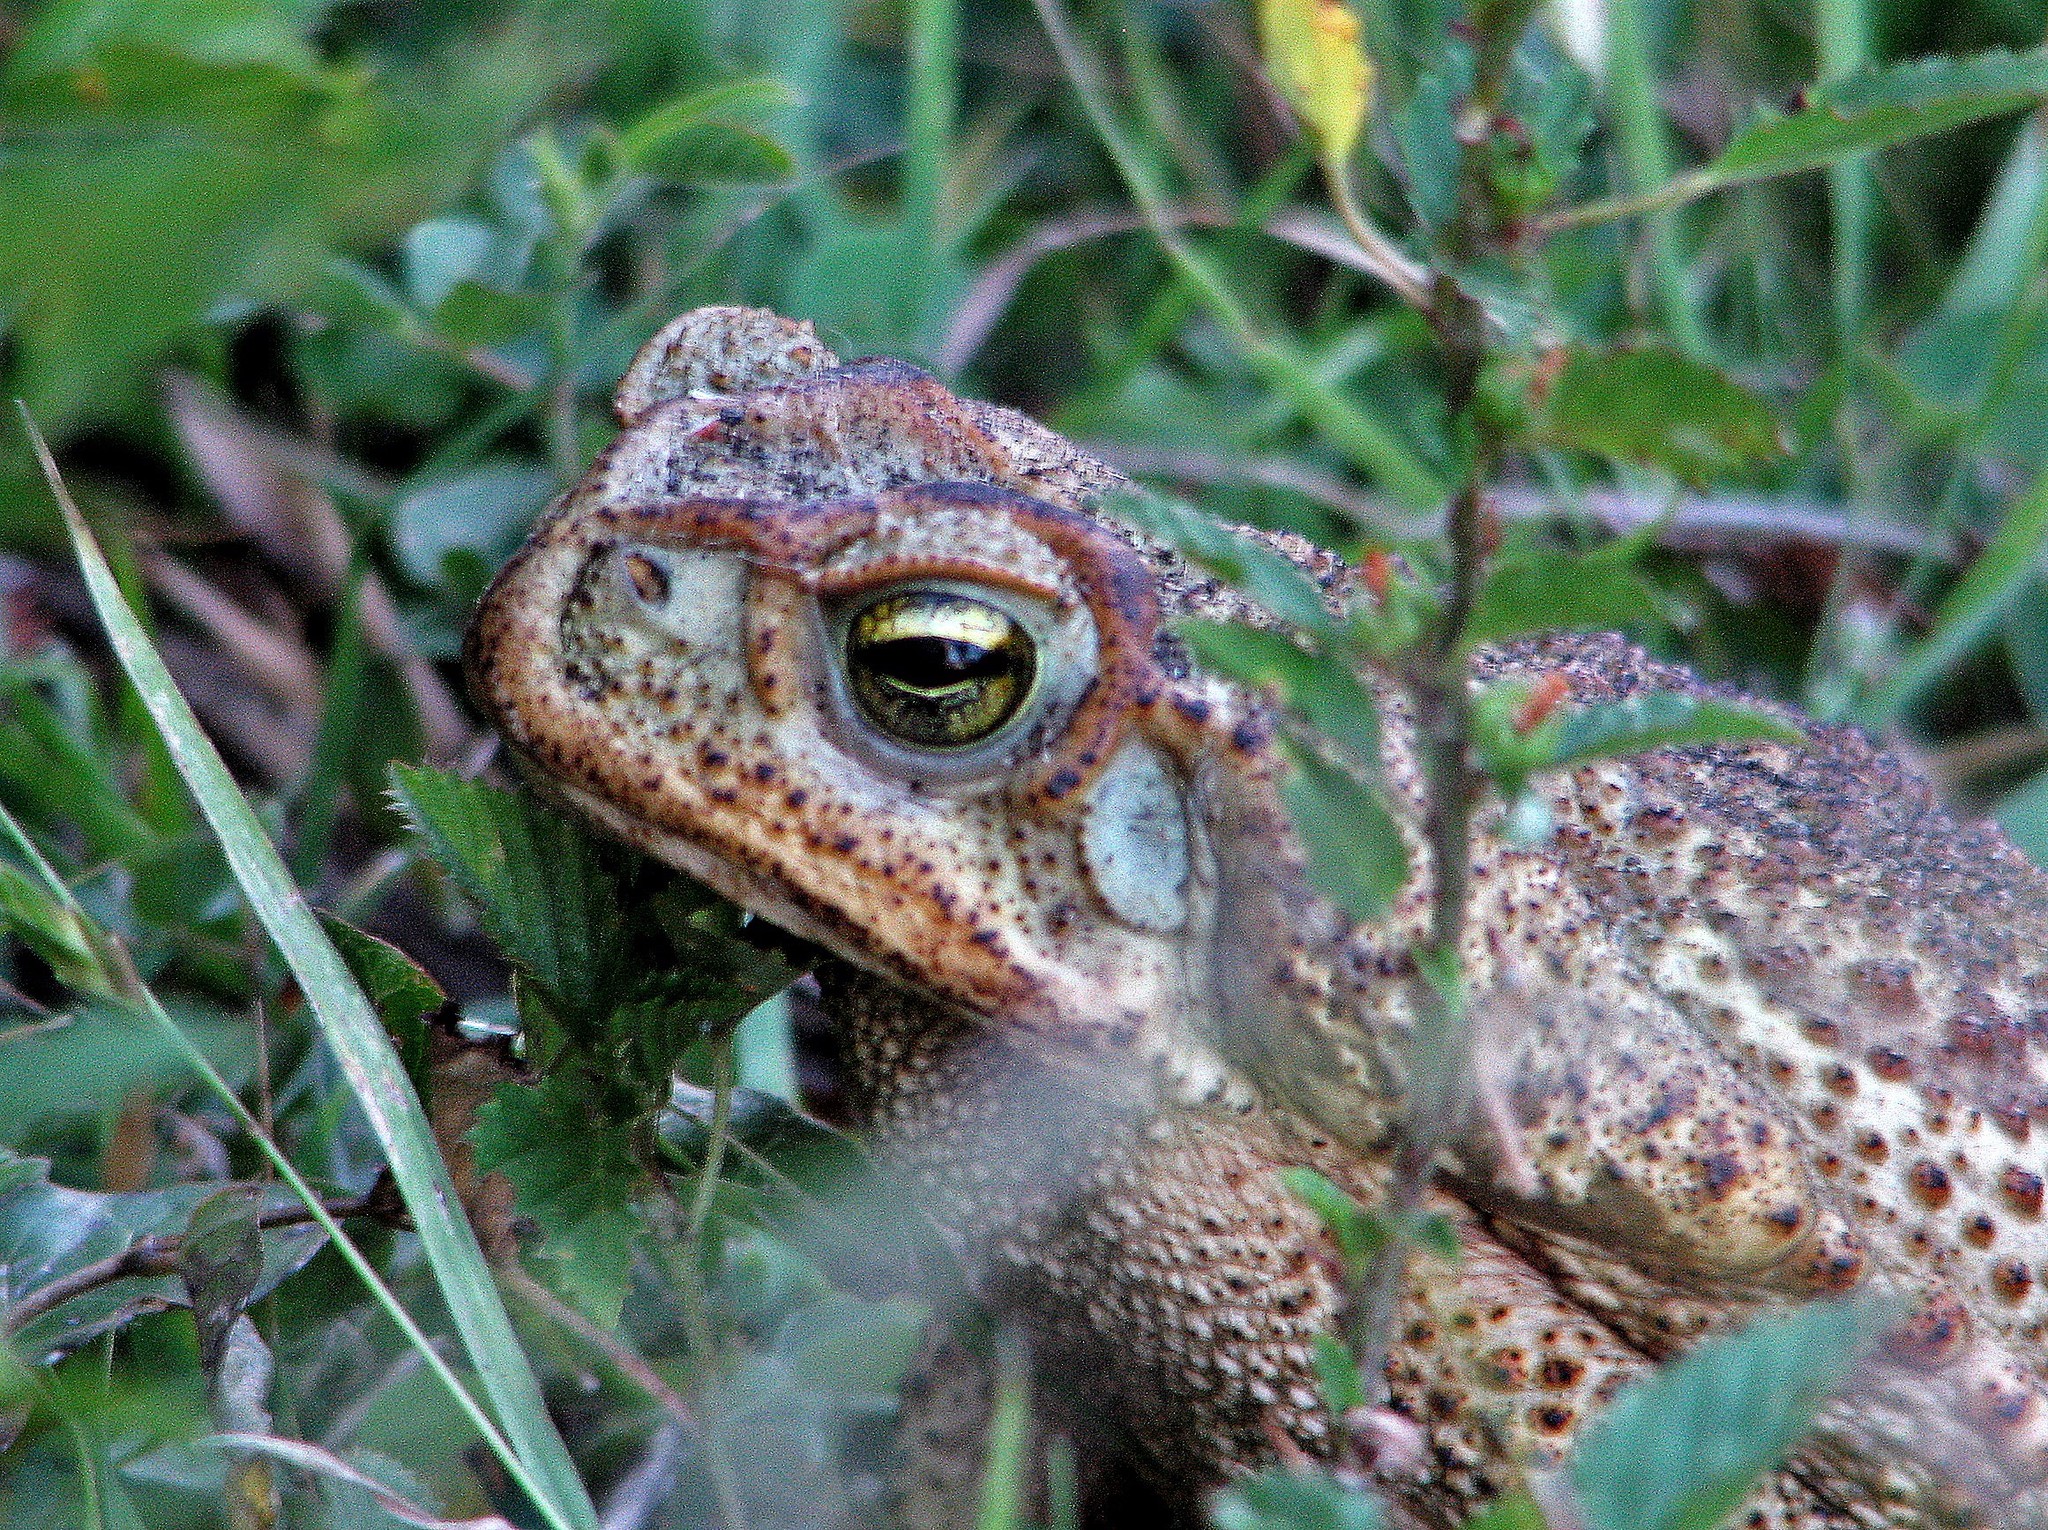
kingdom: Animalia
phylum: Chordata
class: Amphibia
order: Anura
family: Bufonidae
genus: Rhinella
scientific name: Rhinella diptycha
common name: Cope's toad
